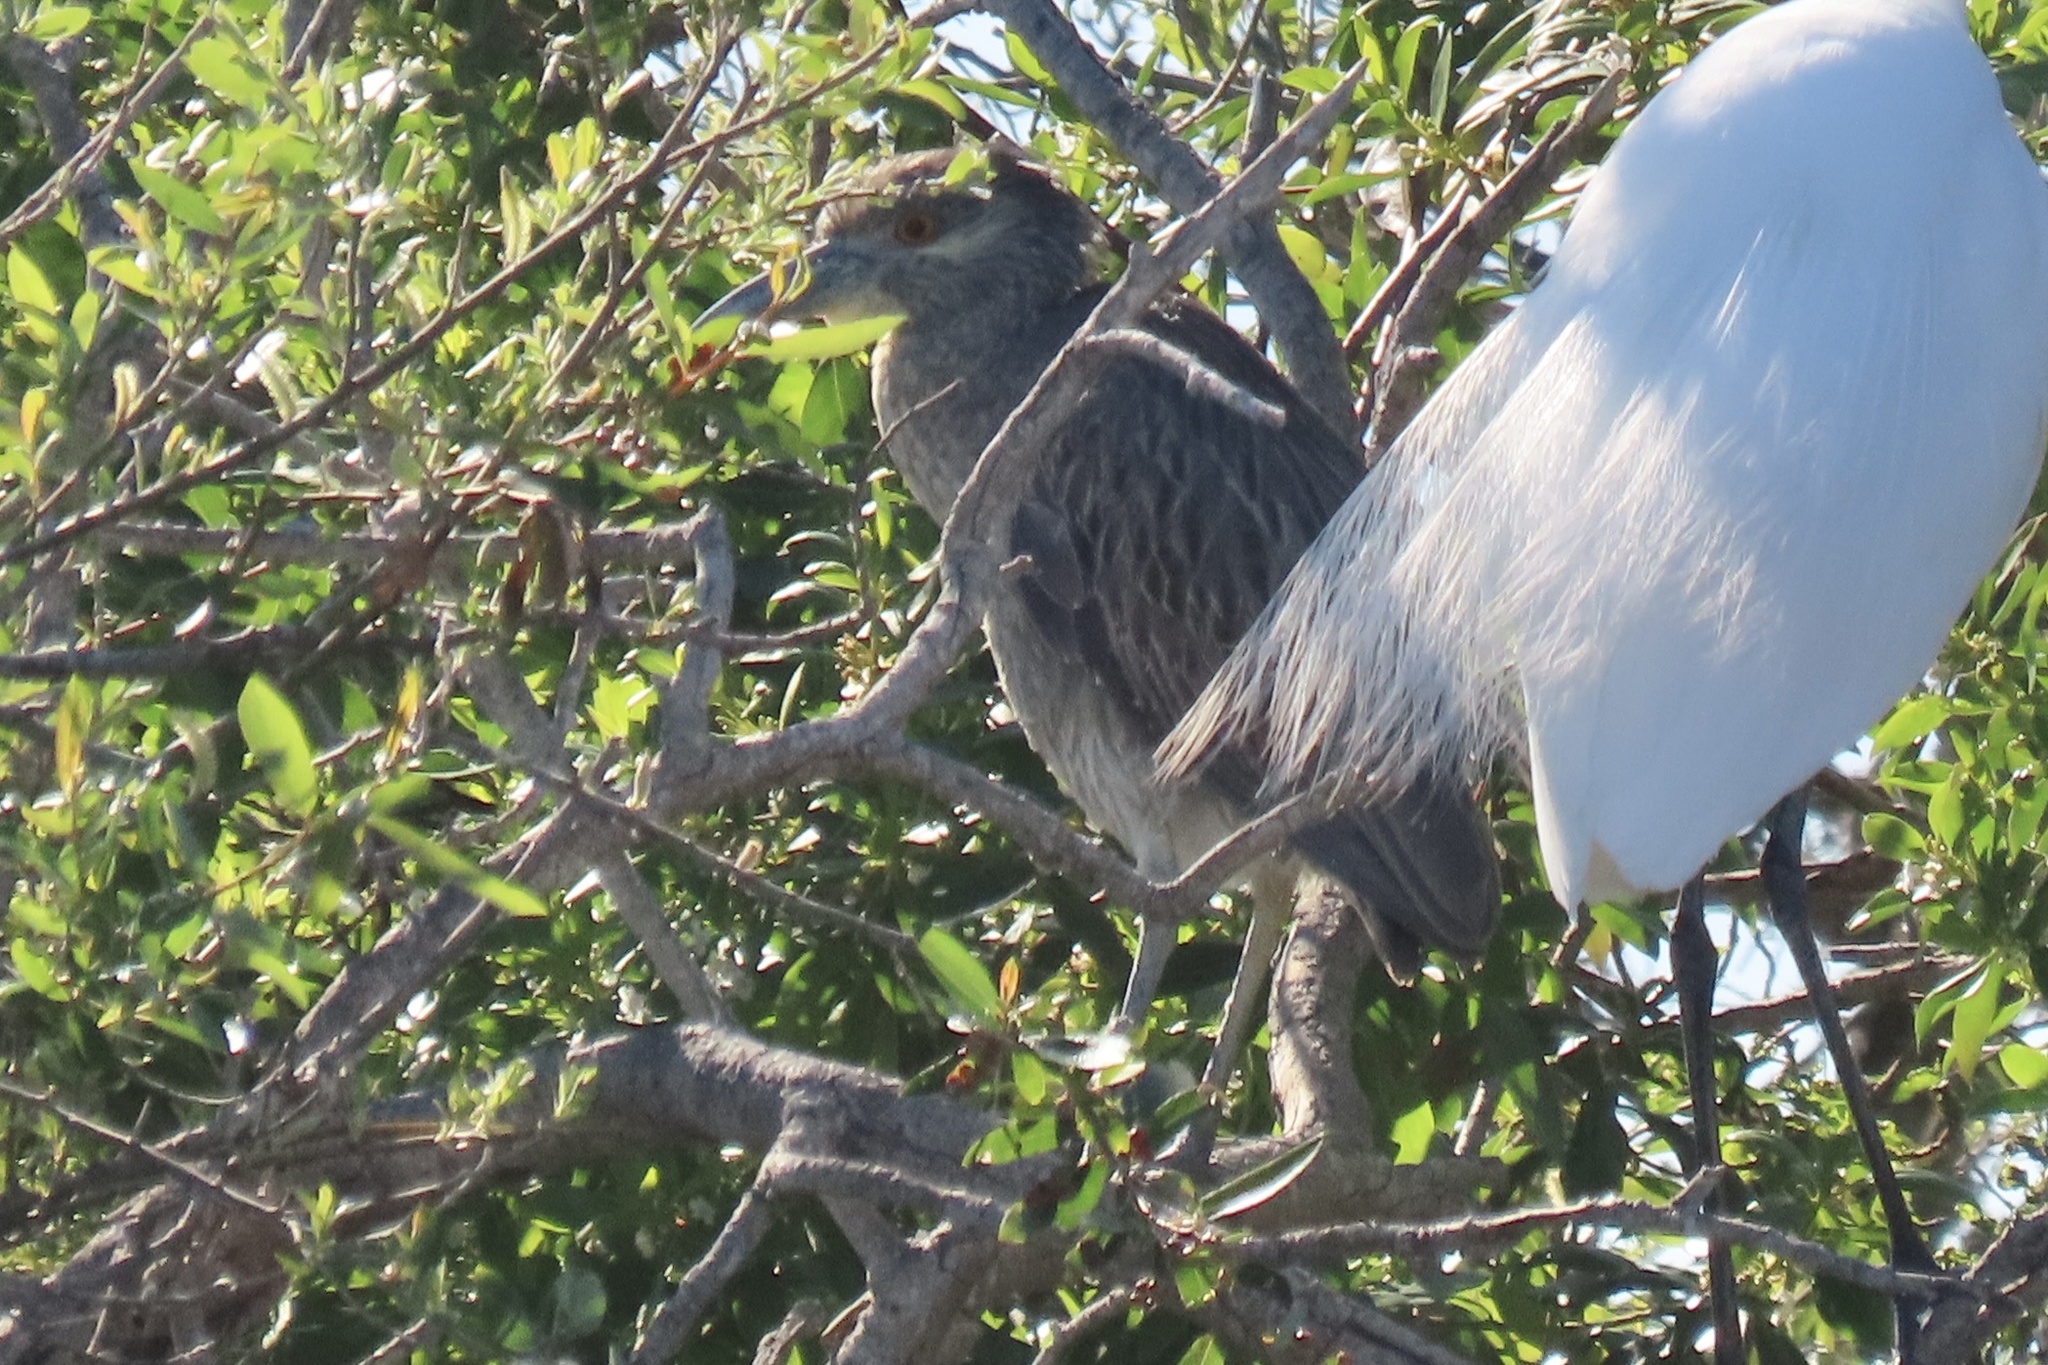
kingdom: Animalia
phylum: Chordata
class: Aves
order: Pelecaniformes
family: Ardeidae
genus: Nyctanassa
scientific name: Nyctanassa violacea
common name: Yellow-crowned night heron
